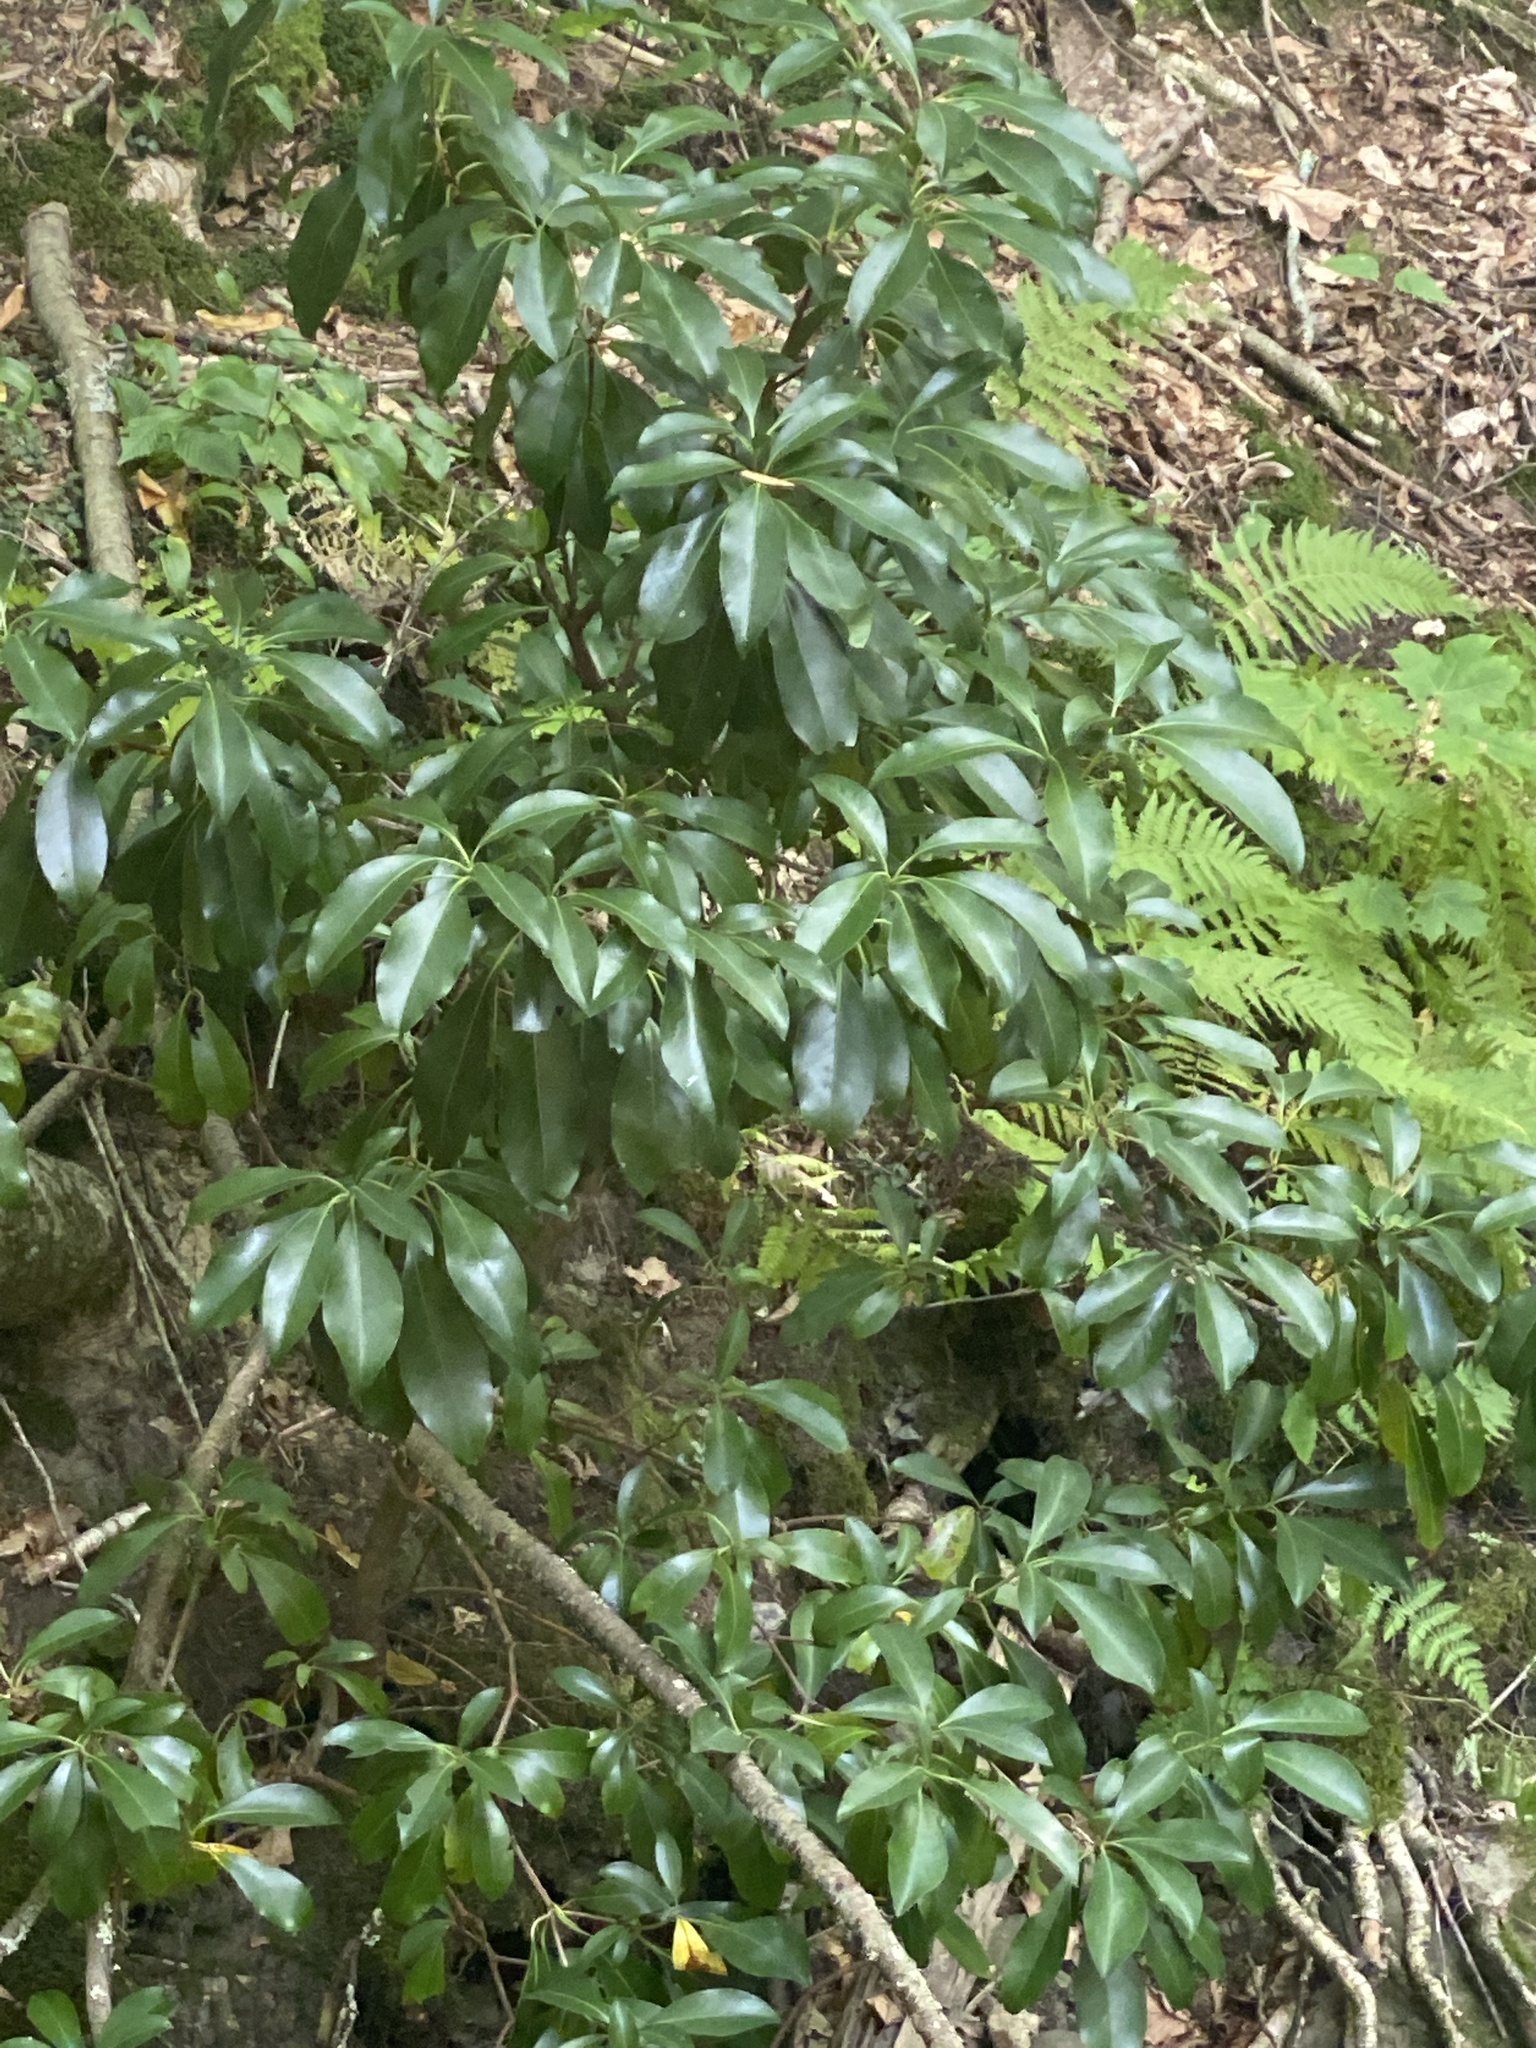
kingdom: Plantae
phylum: Tracheophyta
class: Magnoliopsida
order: Ericales
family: Ericaceae
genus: Kalmia
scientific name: Kalmia latifolia
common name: Mountain-laurel
